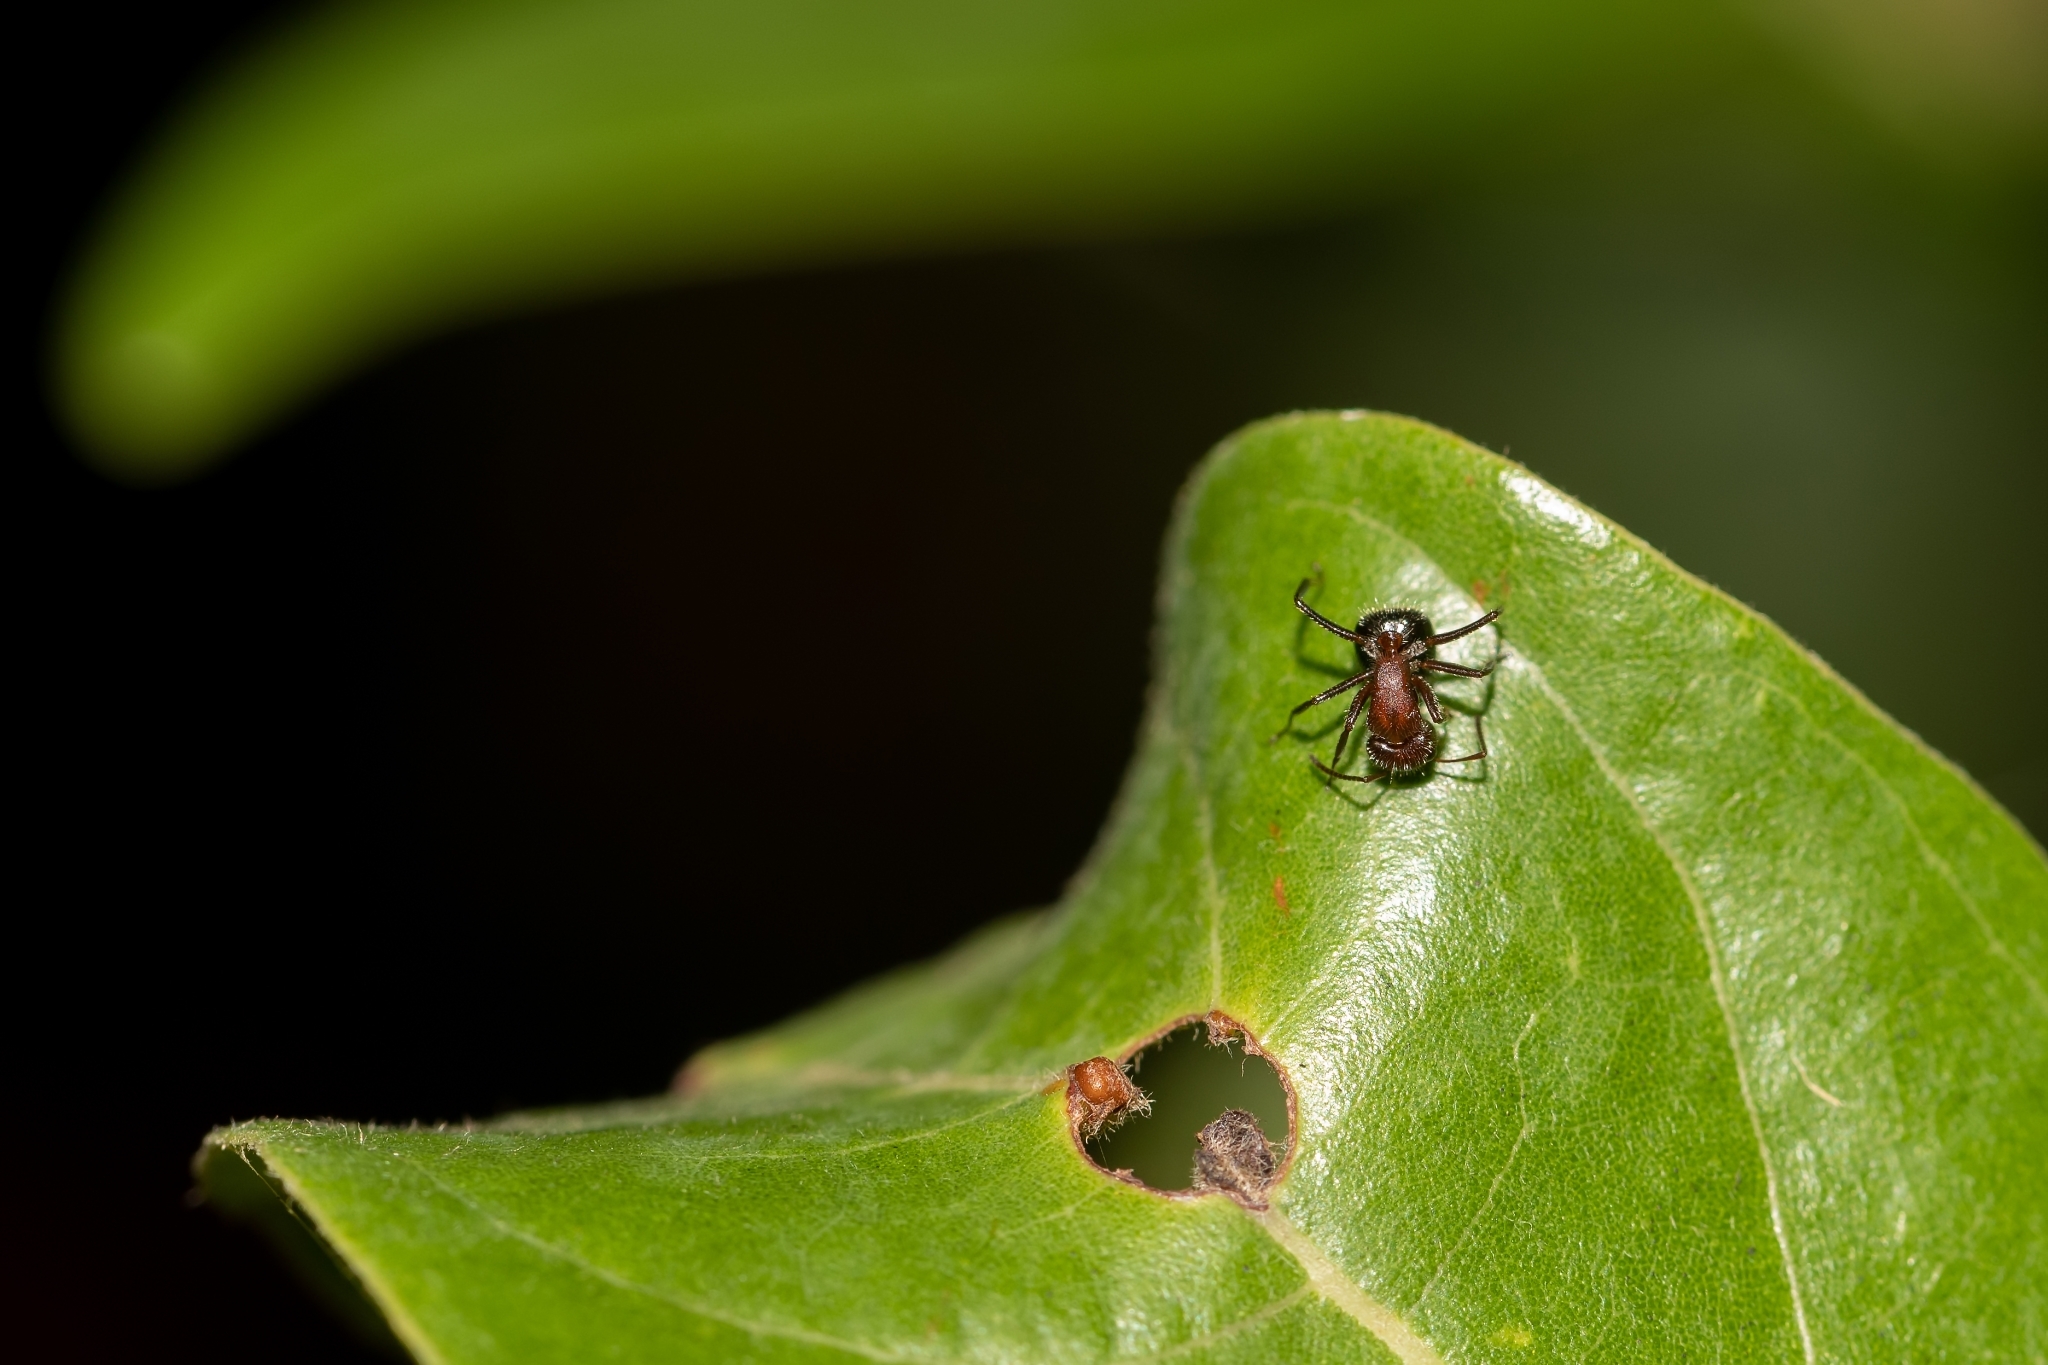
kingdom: Animalia
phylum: Arthropoda
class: Insecta
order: Hymenoptera
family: Formicidae
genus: Camponotus
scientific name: Camponotus planatus
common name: Compact carpenter ant
